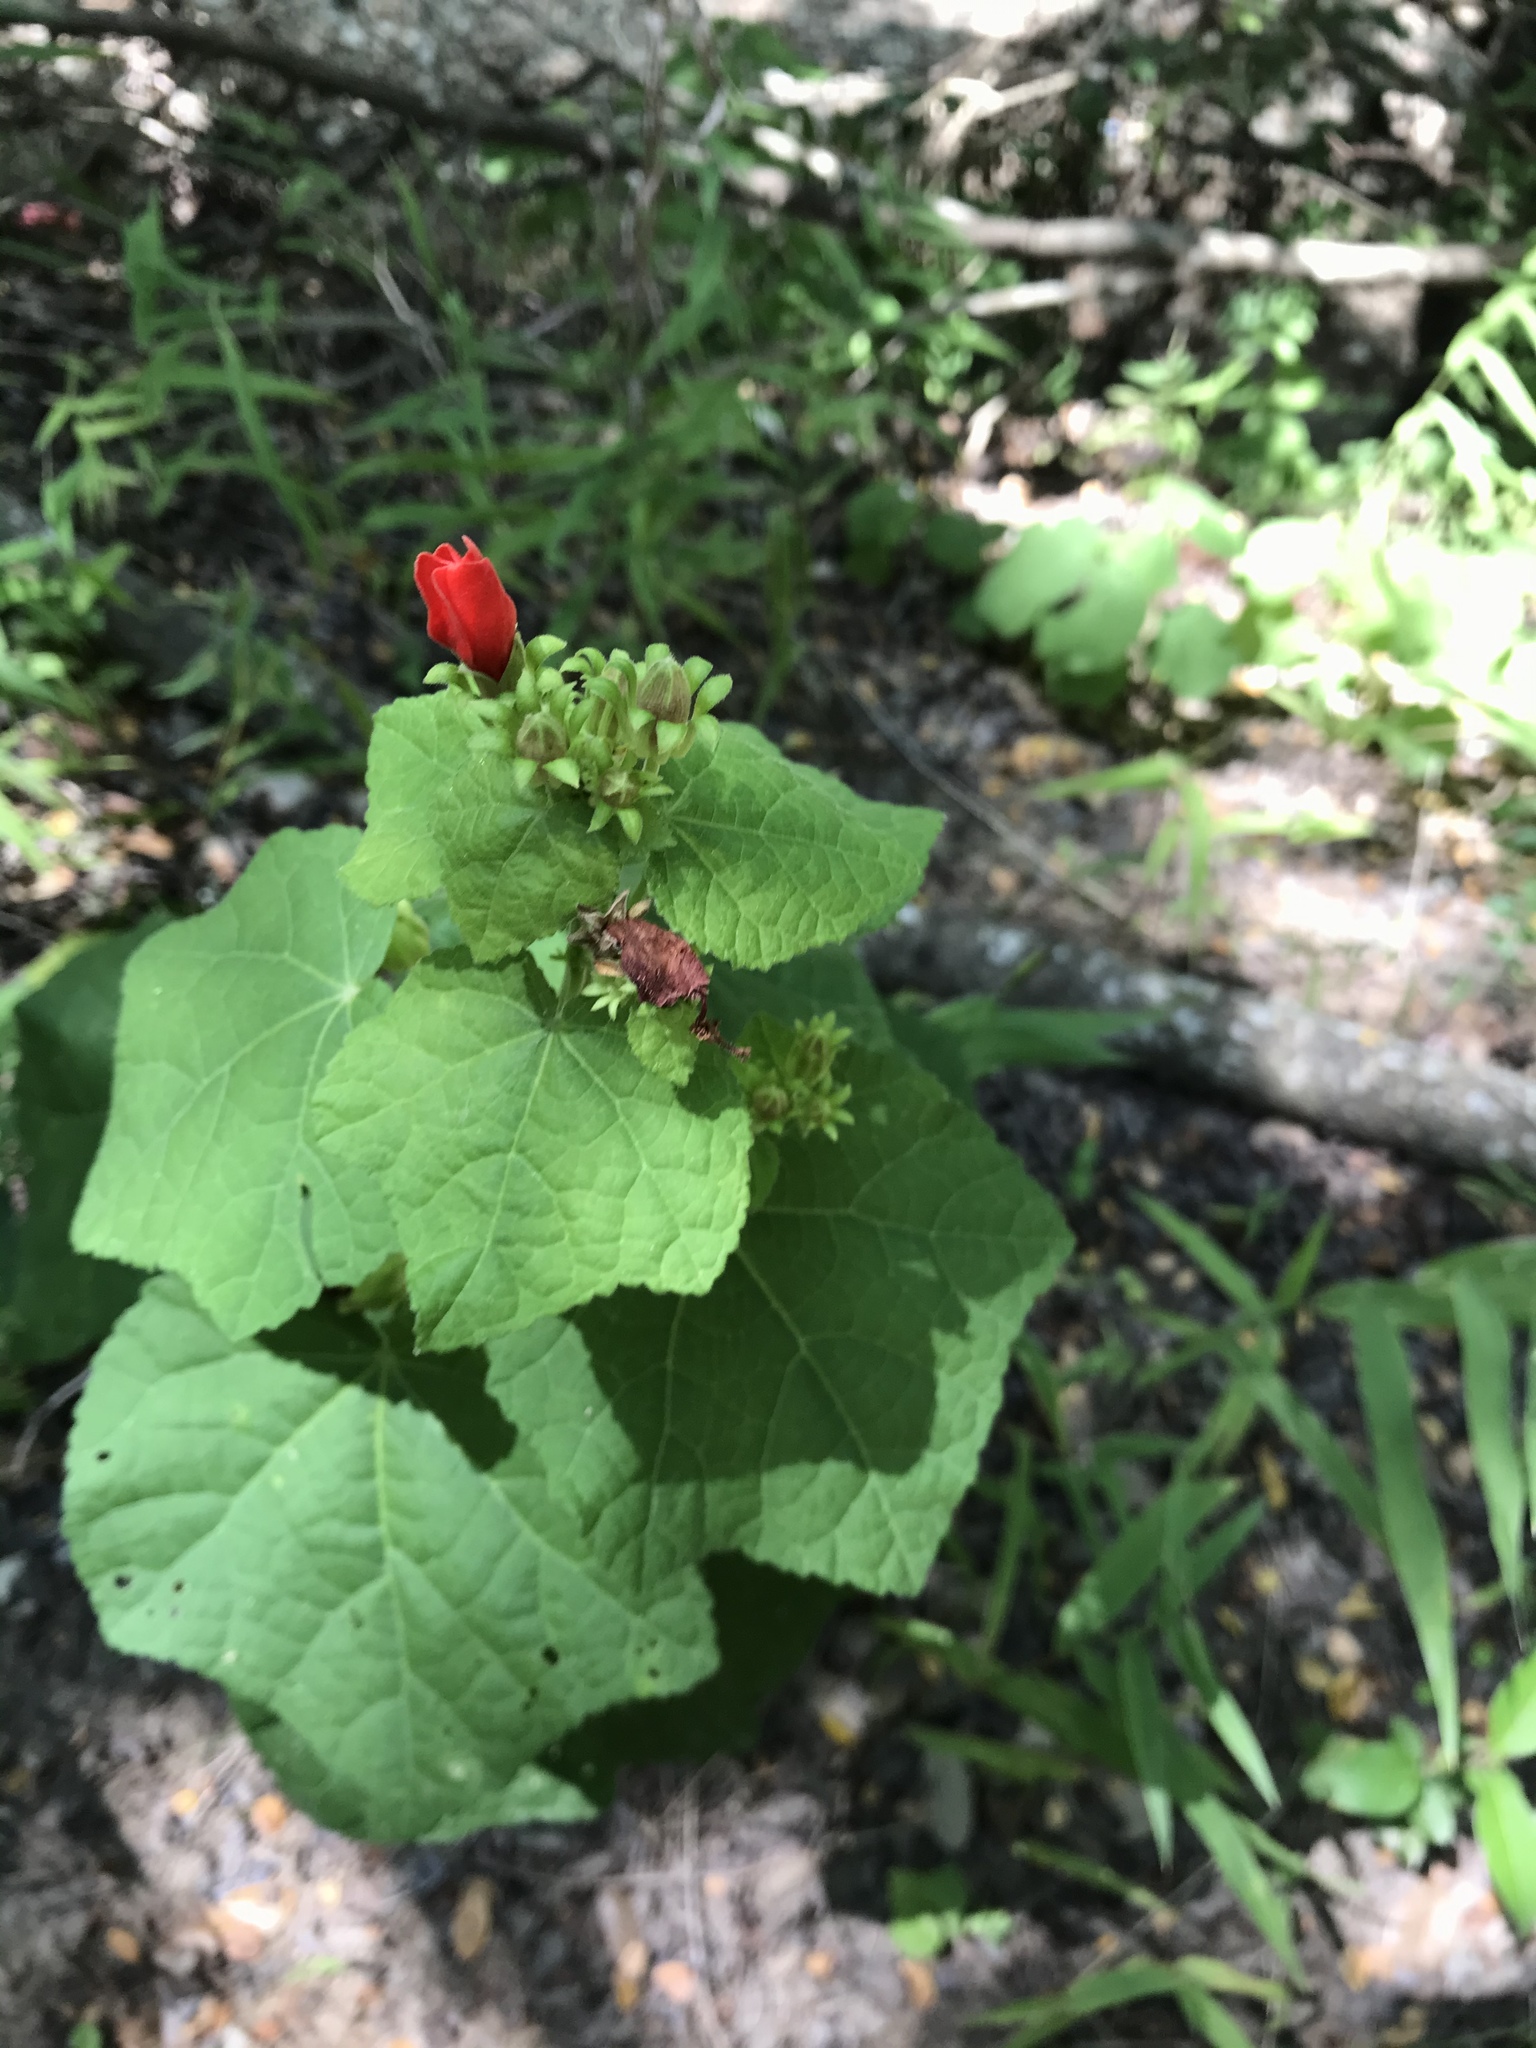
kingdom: Plantae
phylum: Tracheophyta
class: Magnoliopsida
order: Malvales
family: Malvaceae
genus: Malvaviscus
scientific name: Malvaviscus arboreus
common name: Wax mallow
